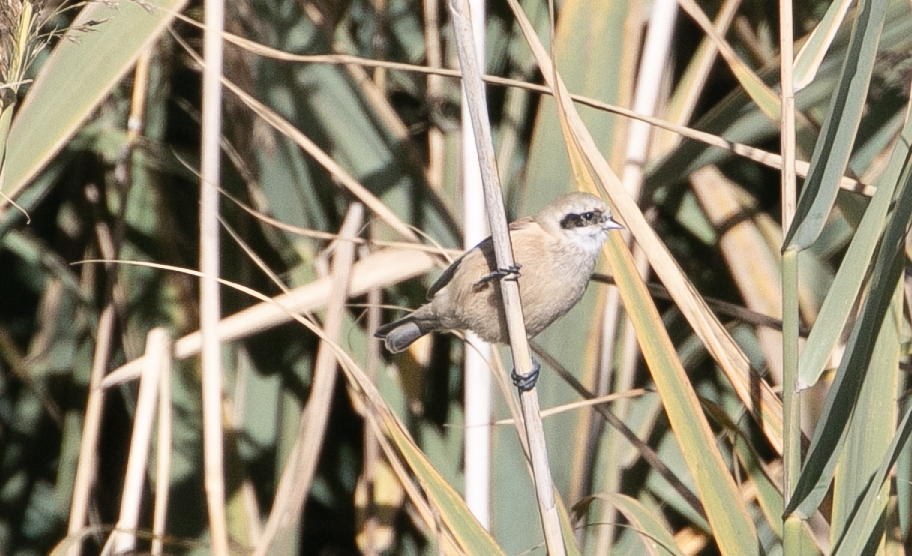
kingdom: Animalia
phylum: Chordata
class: Aves
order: Passeriformes
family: Remizidae
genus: Remiz
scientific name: Remiz pendulinus
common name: Eurasian penduline tit
